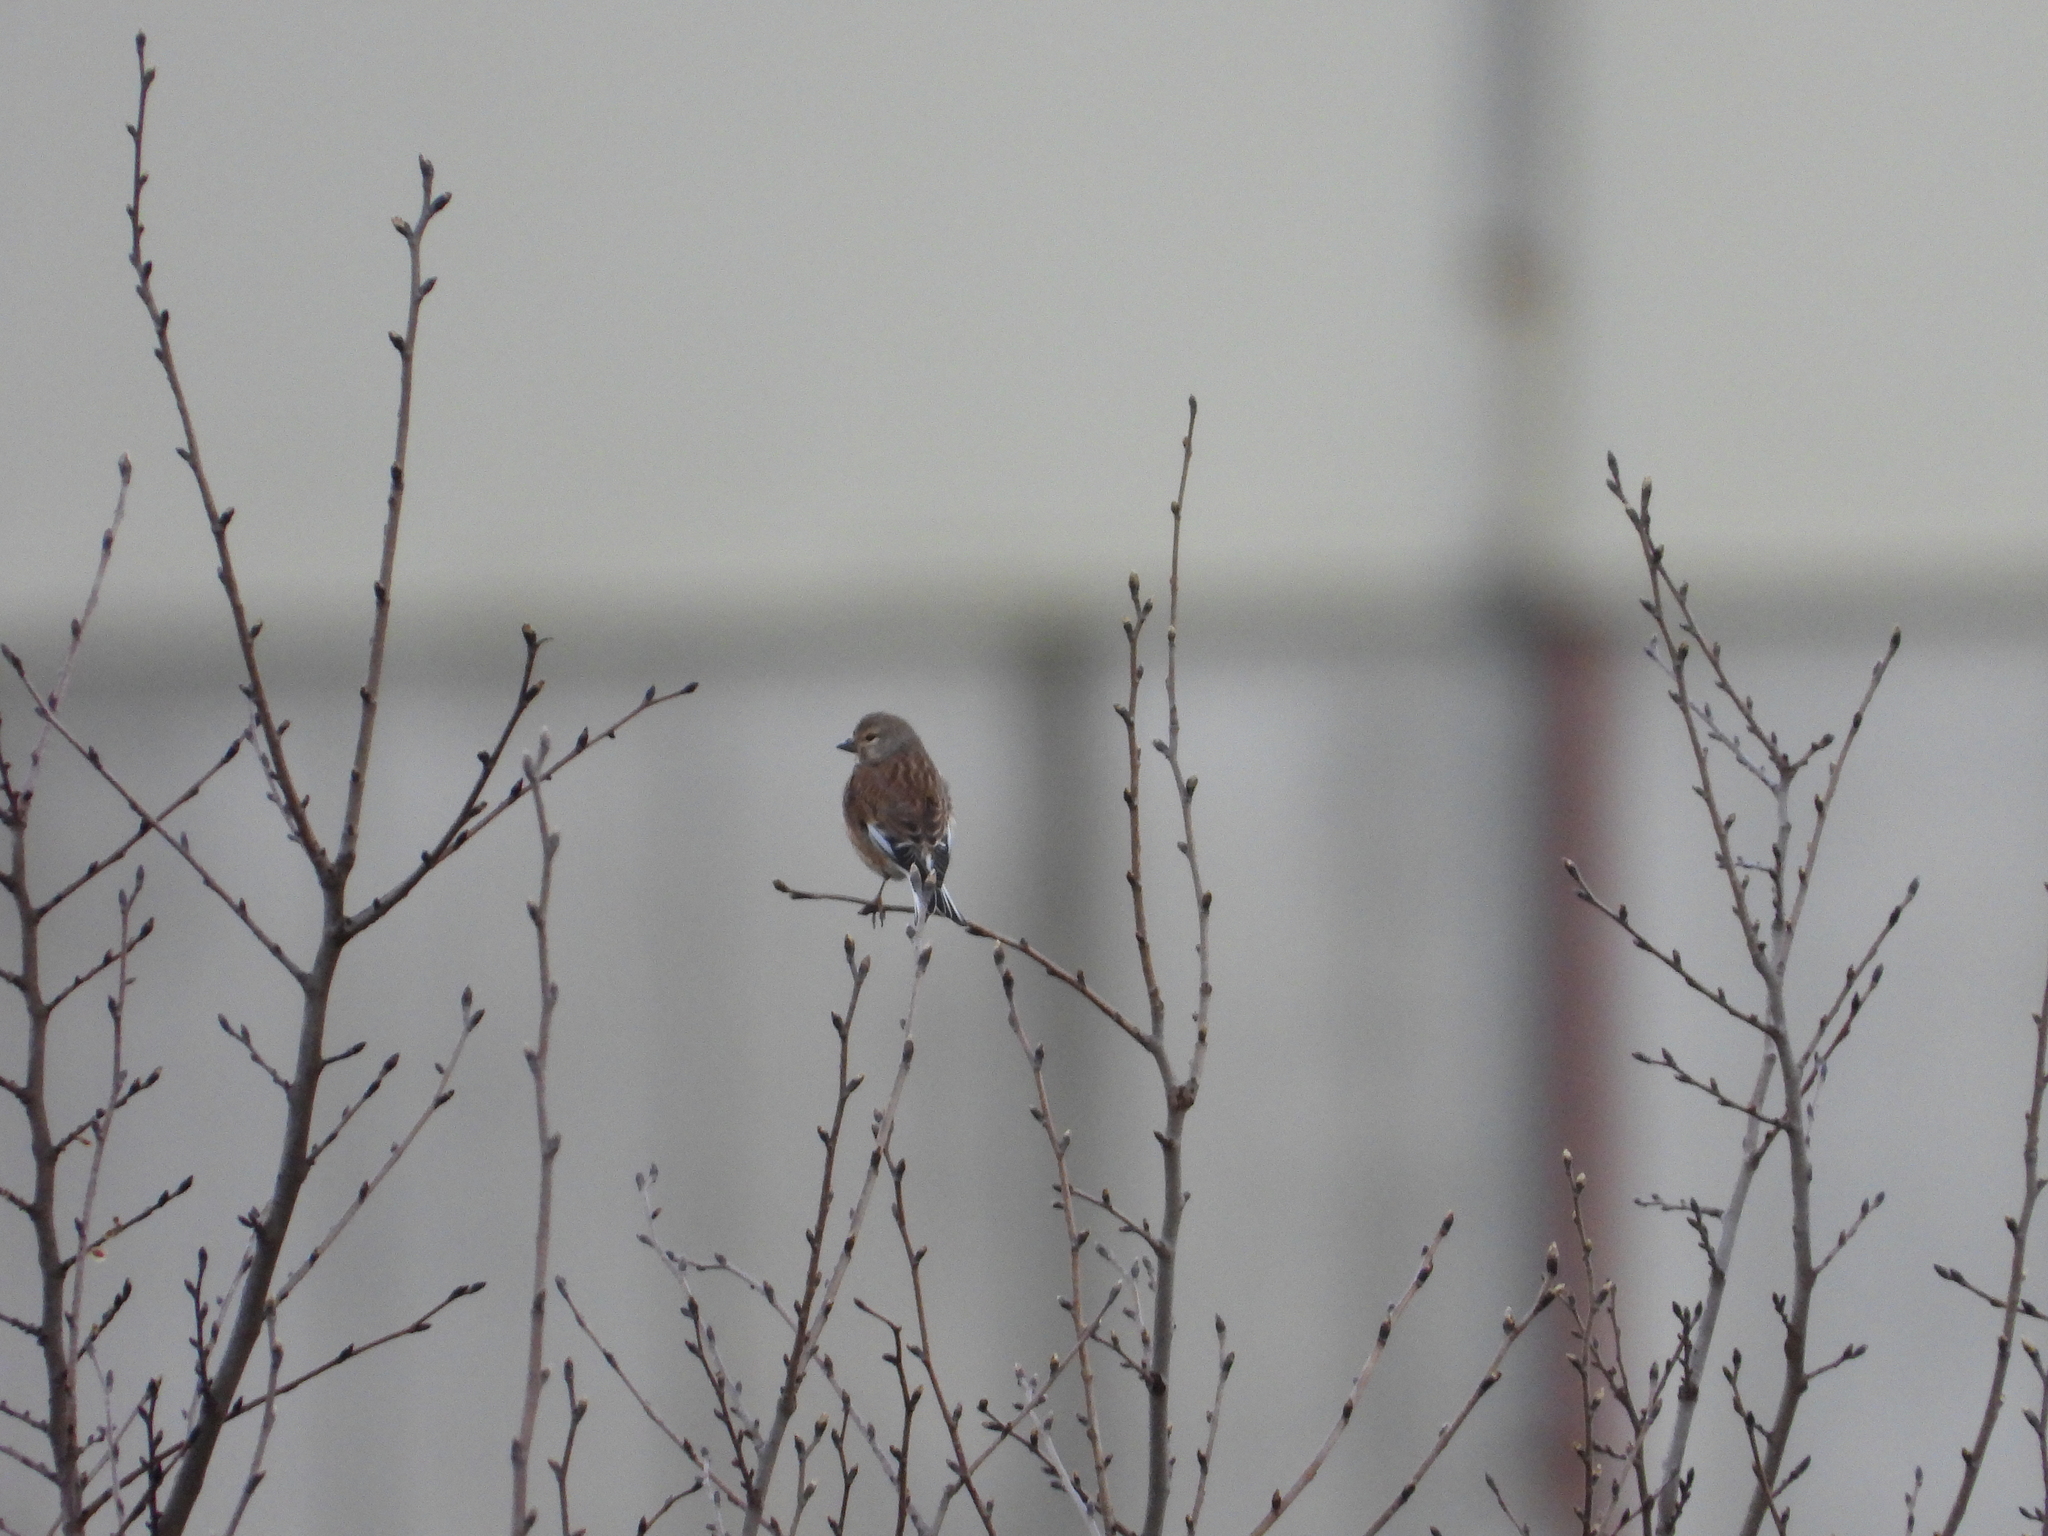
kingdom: Animalia
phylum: Chordata
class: Aves
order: Passeriformes
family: Fringillidae
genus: Linaria
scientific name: Linaria cannabina
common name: Common linnet
